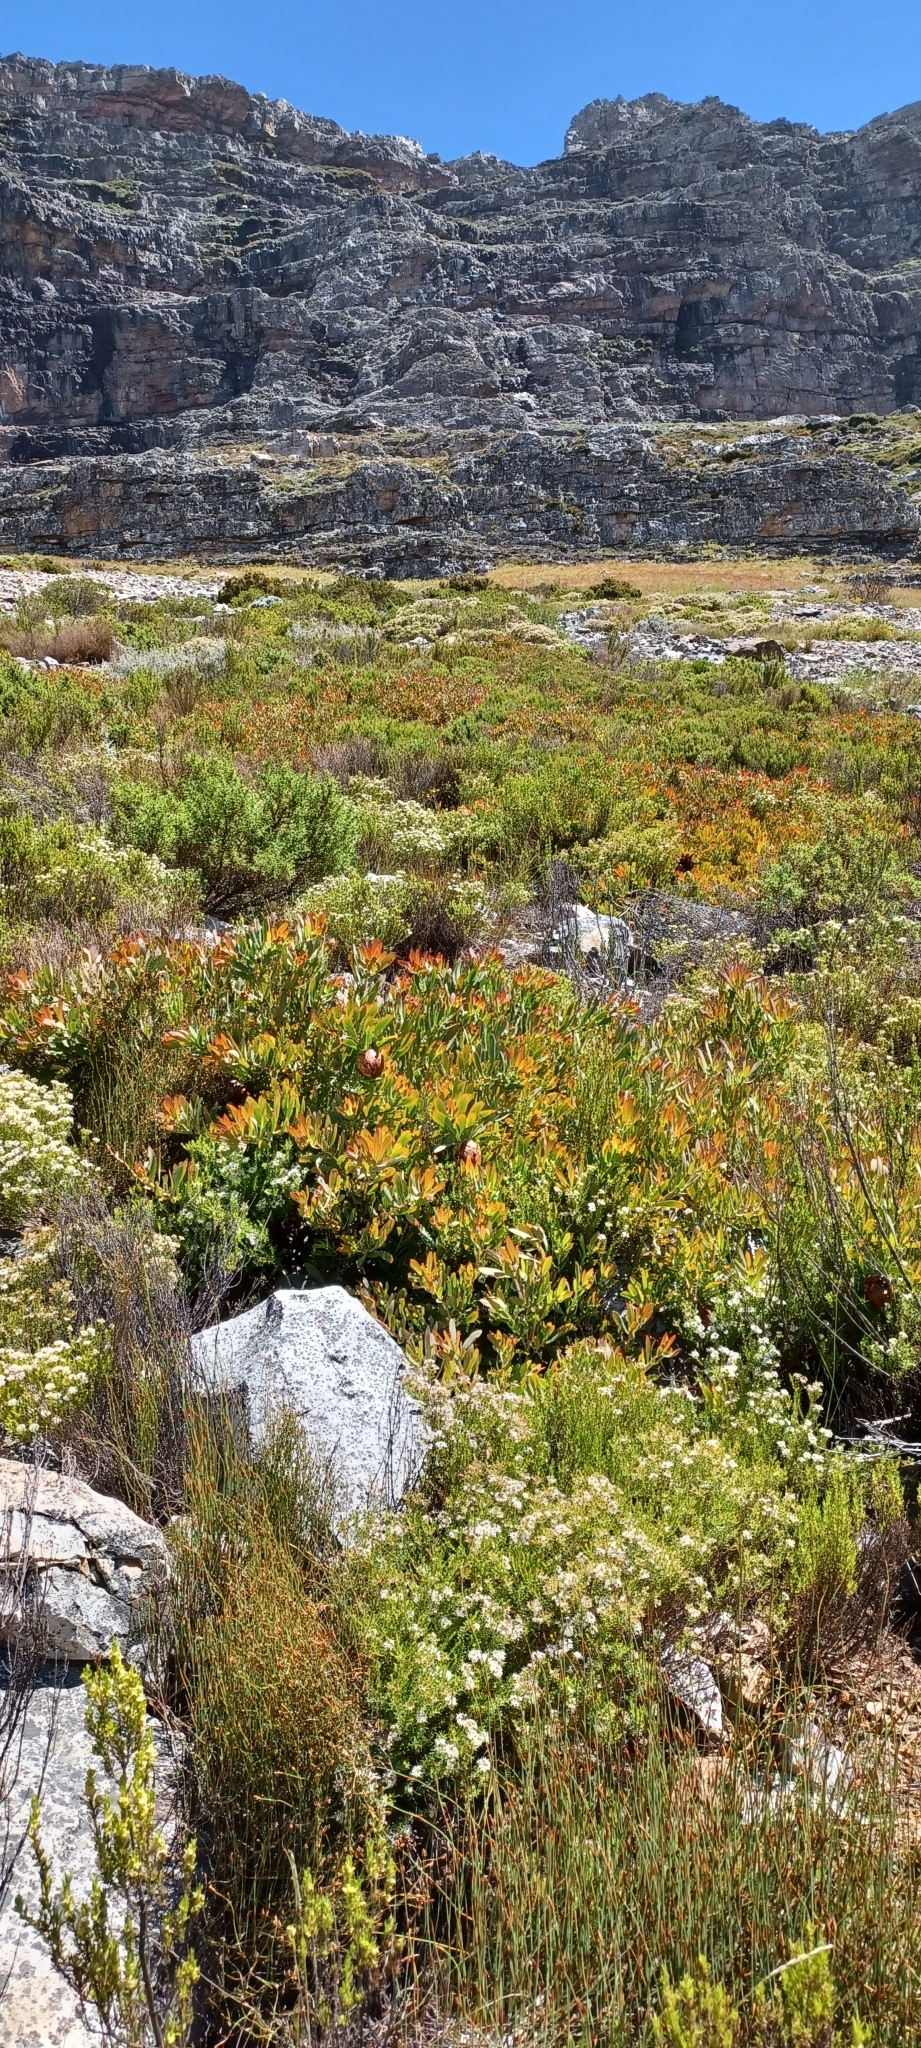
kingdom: Plantae
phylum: Tracheophyta
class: Magnoliopsida
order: Proteales
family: Proteaceae
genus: Protea
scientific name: Protea effusa
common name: Scarlet sugarbush
